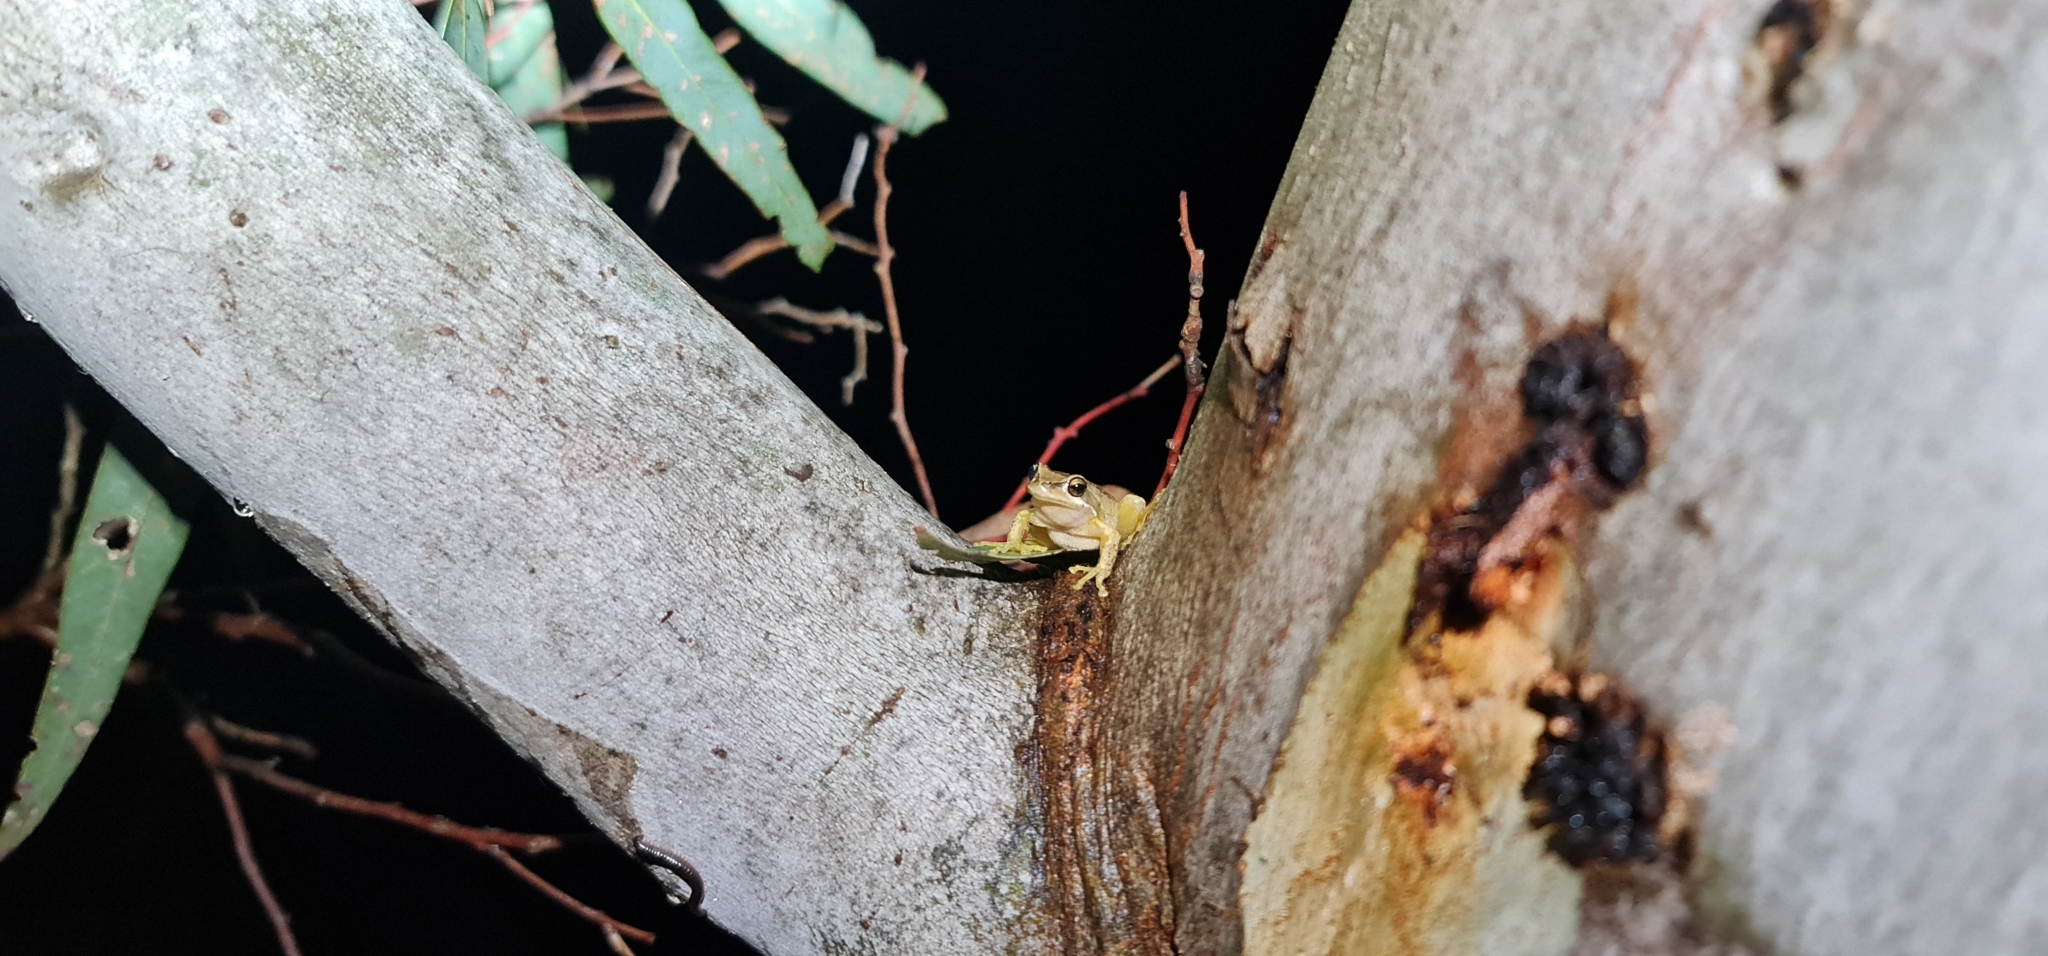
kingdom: Animalia
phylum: Chordata
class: Amphibia
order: Anura
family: Pelodryadidae
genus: Litoria
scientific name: Litoria
